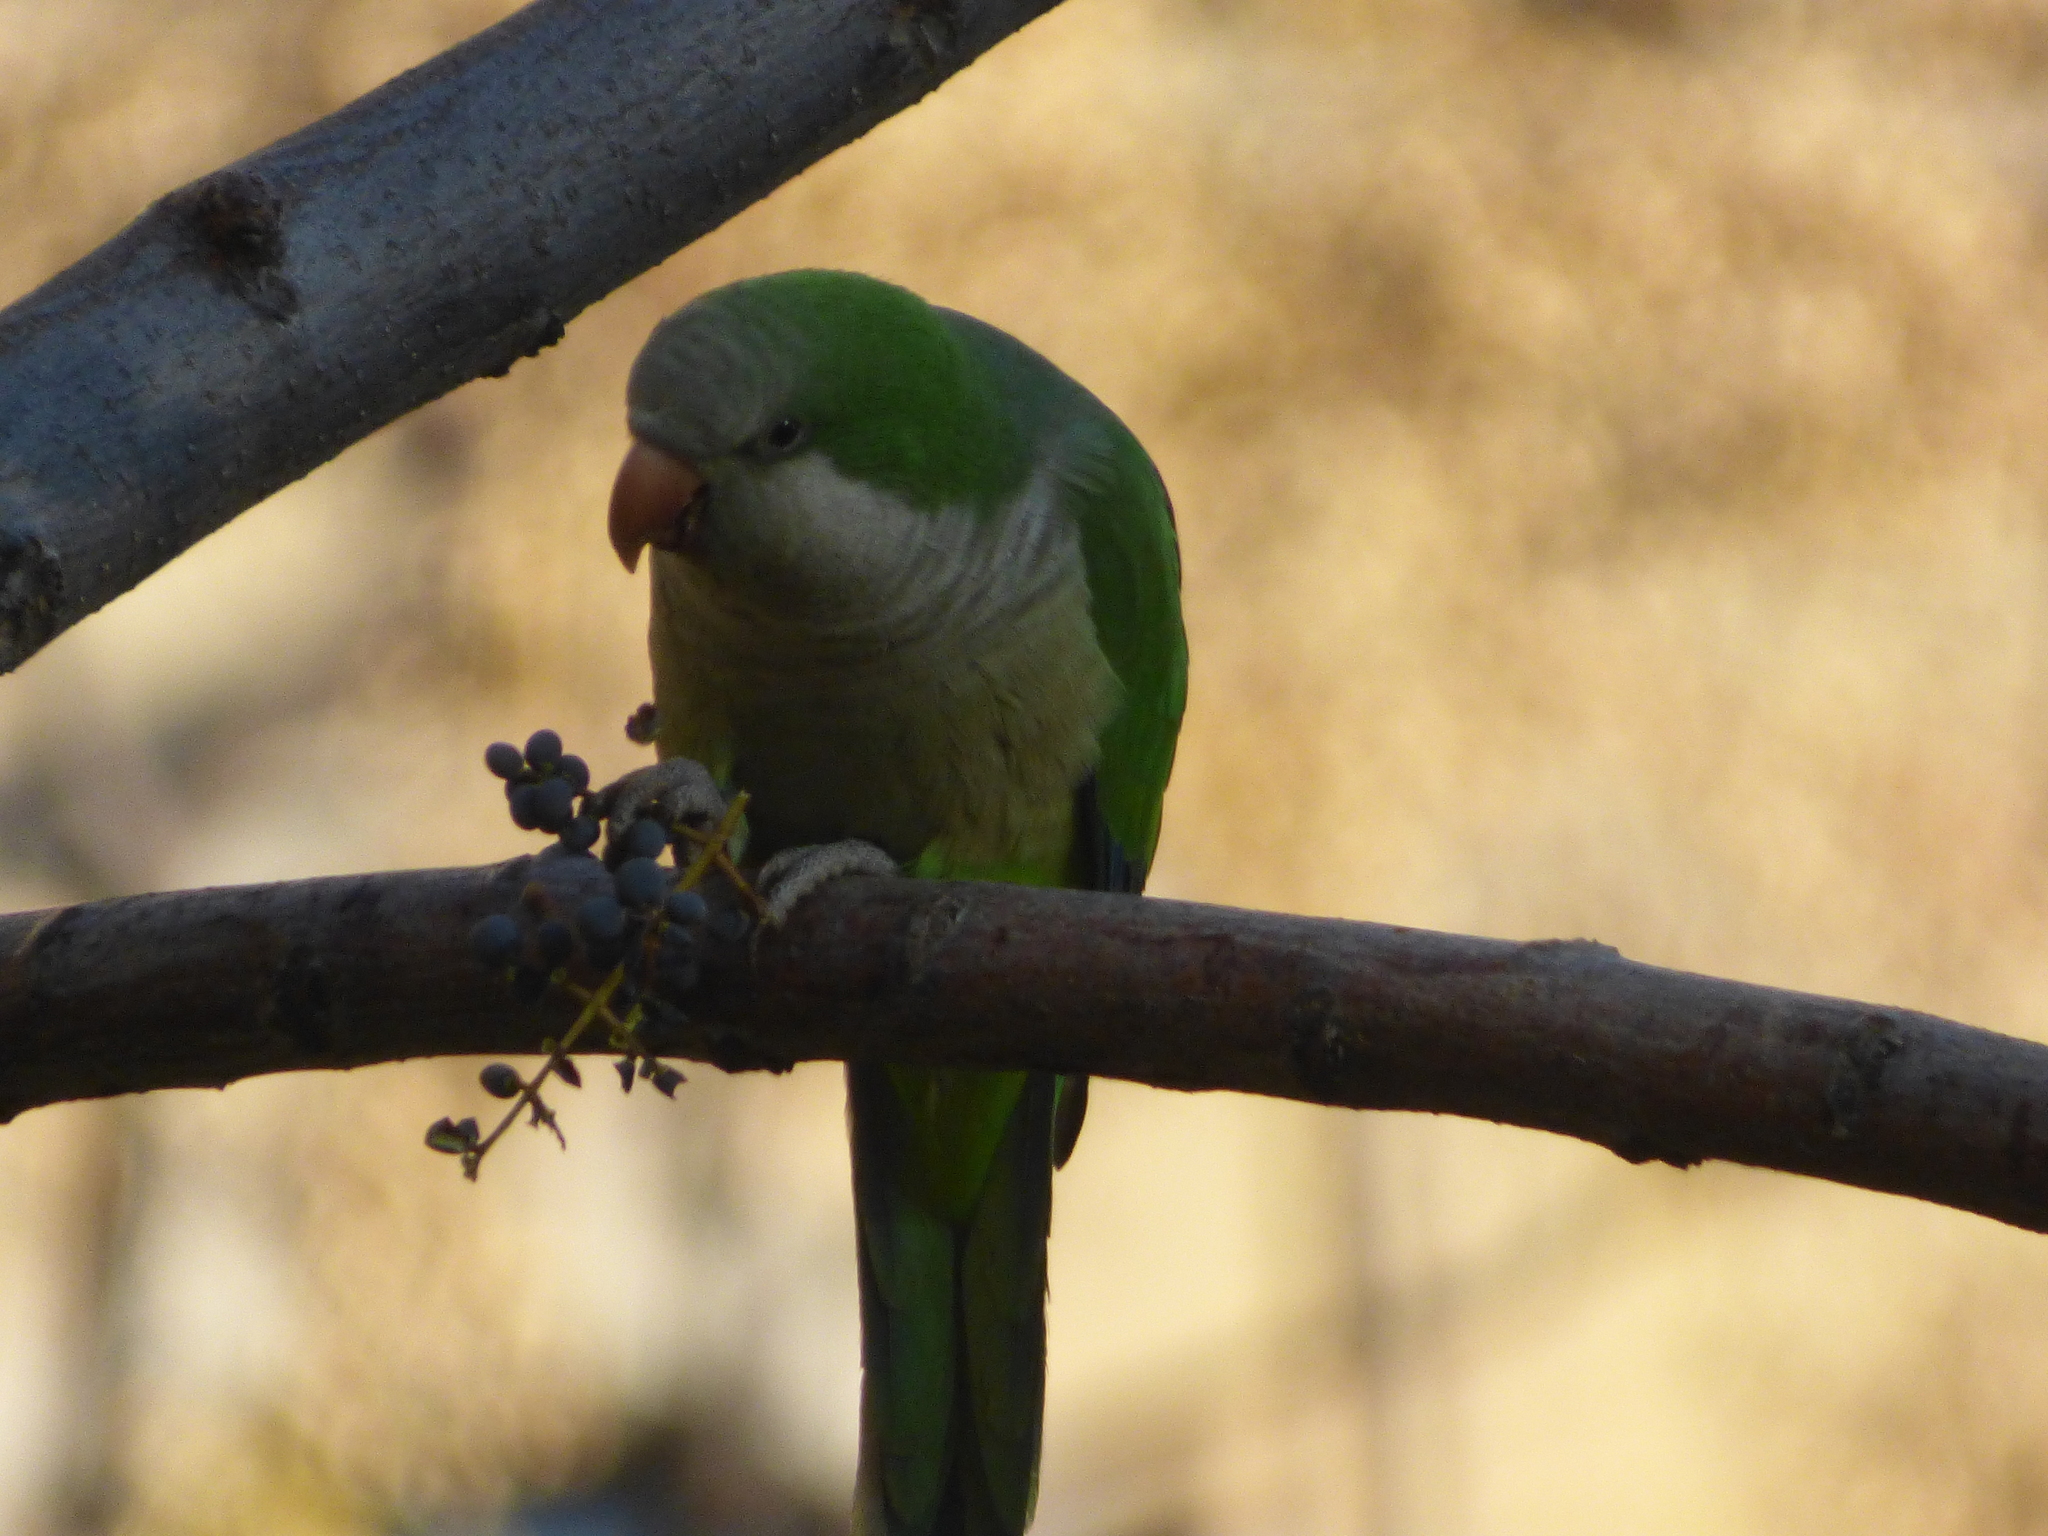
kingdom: Animalia
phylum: Chordata
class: Aves
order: Psittaciformes
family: Psittacidae
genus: Myiopsitta
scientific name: Myiopsitta monachus
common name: Monk parakeet
